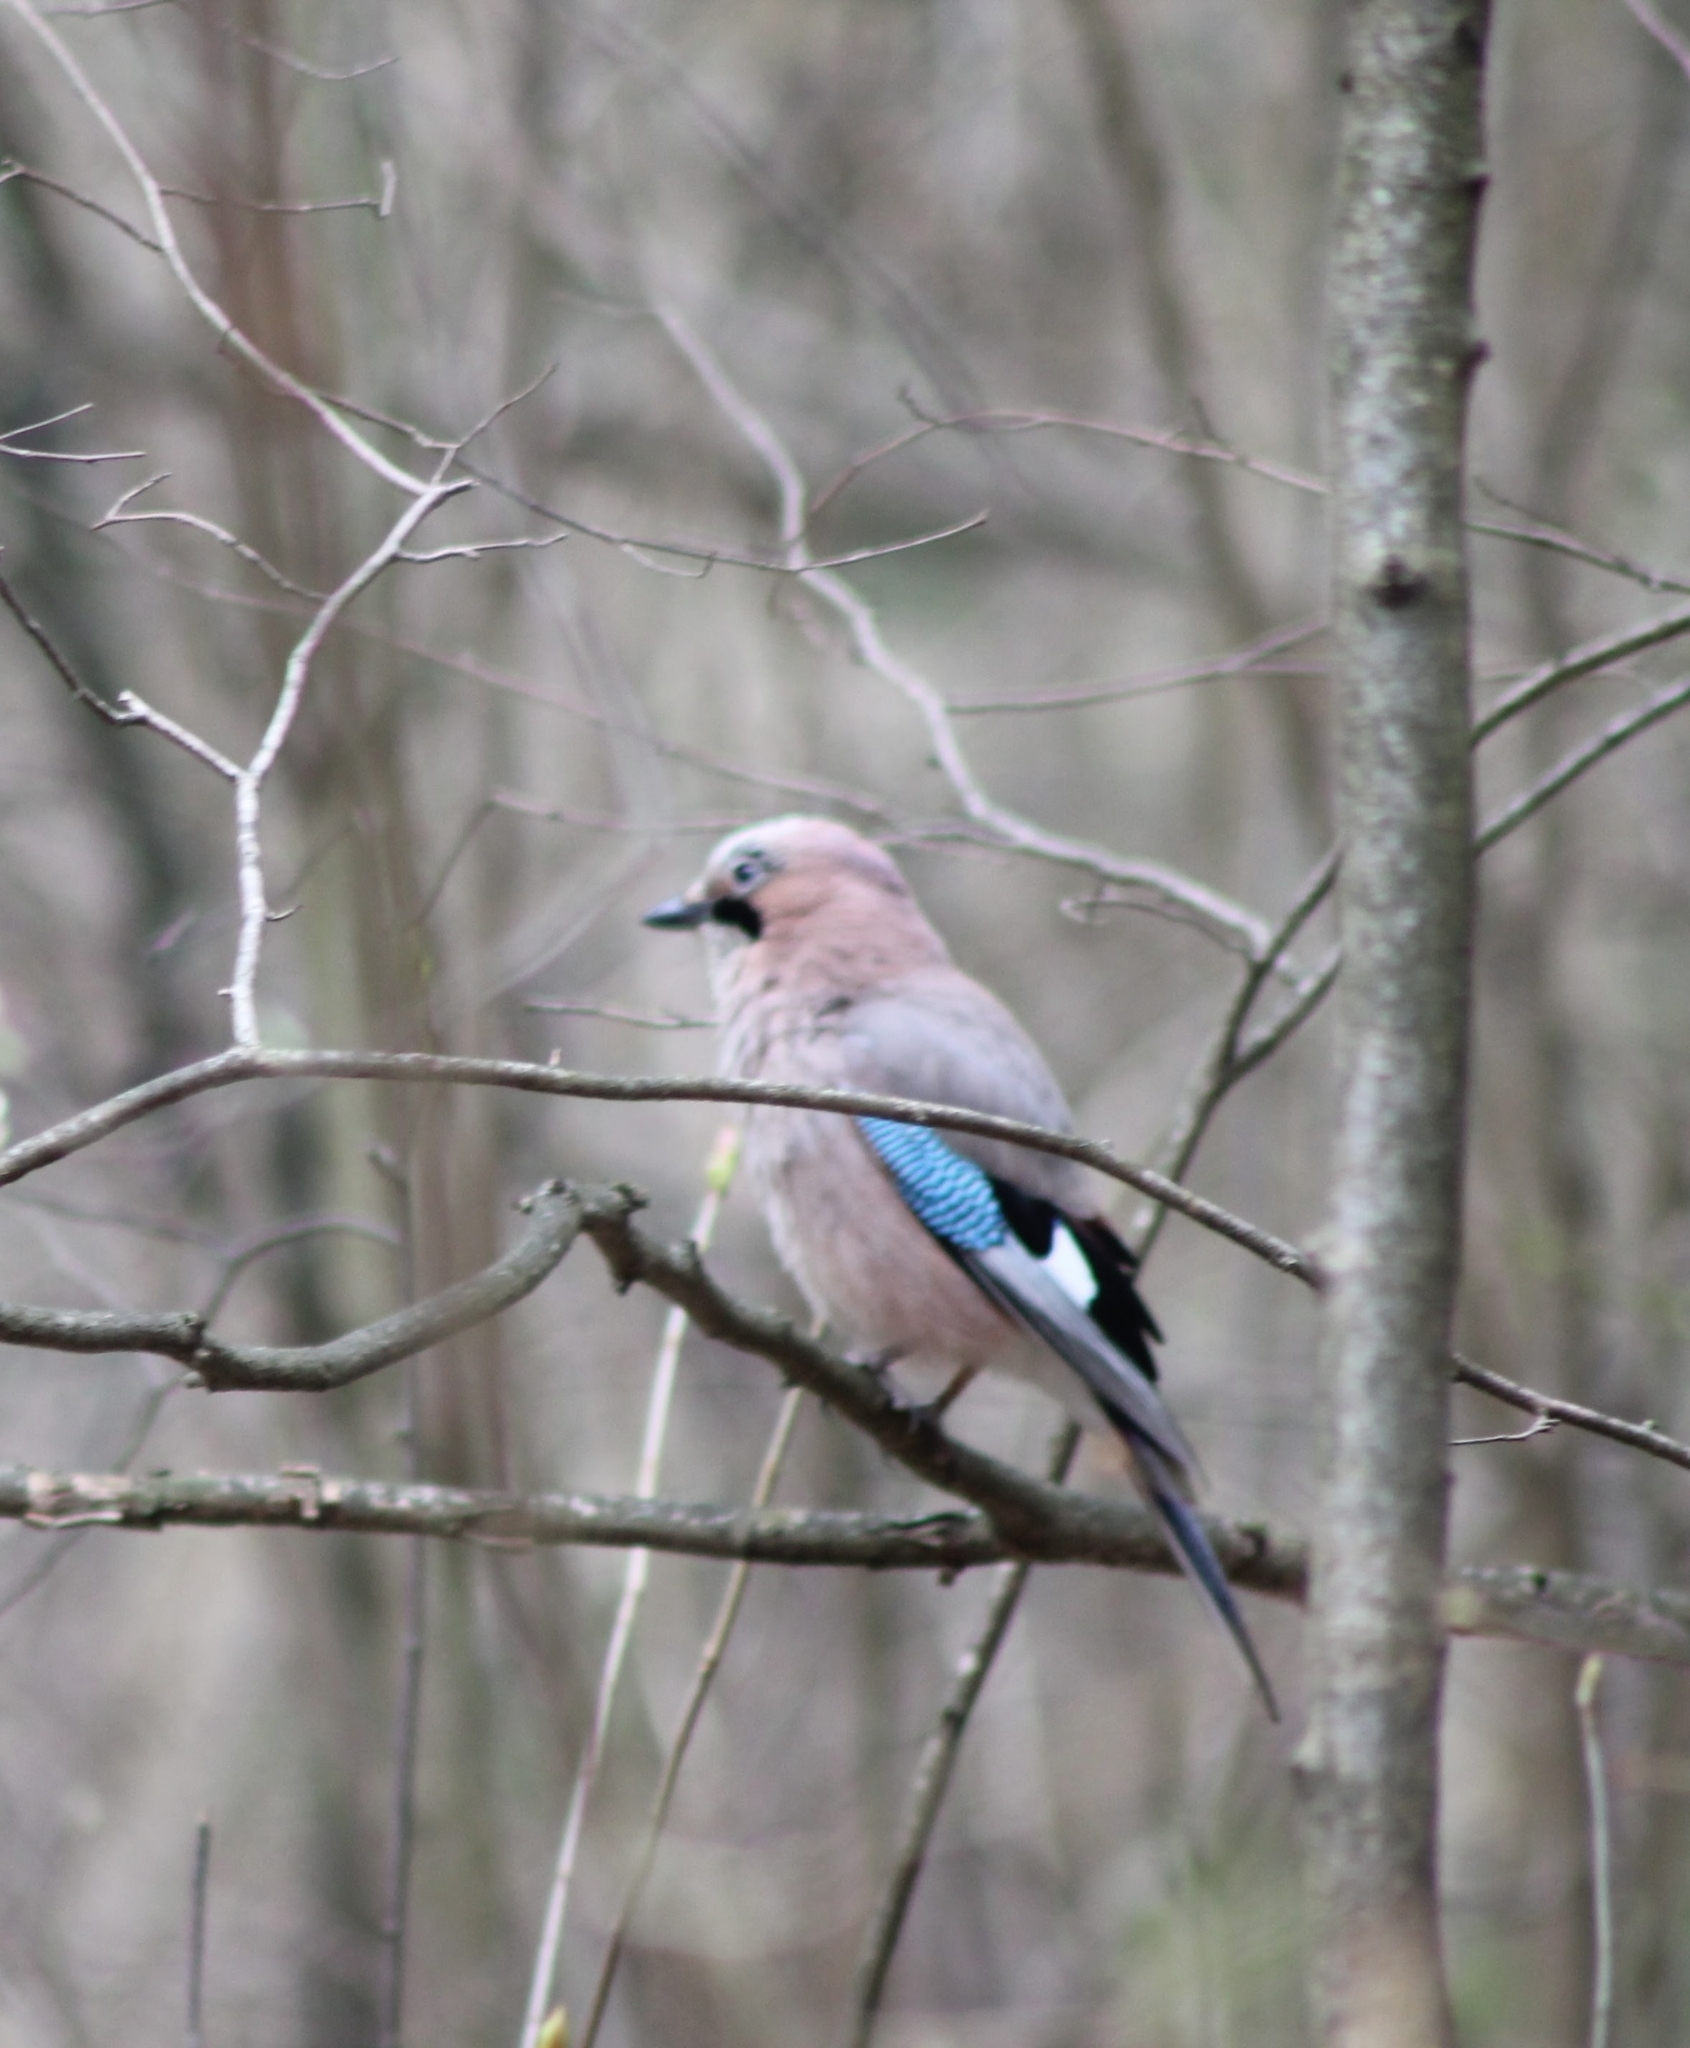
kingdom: Animalia
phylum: Chordata
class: Aves
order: Passeriformes
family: Corvidae
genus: Garrulus
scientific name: Garrulus glandarius
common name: Eurasian jay
